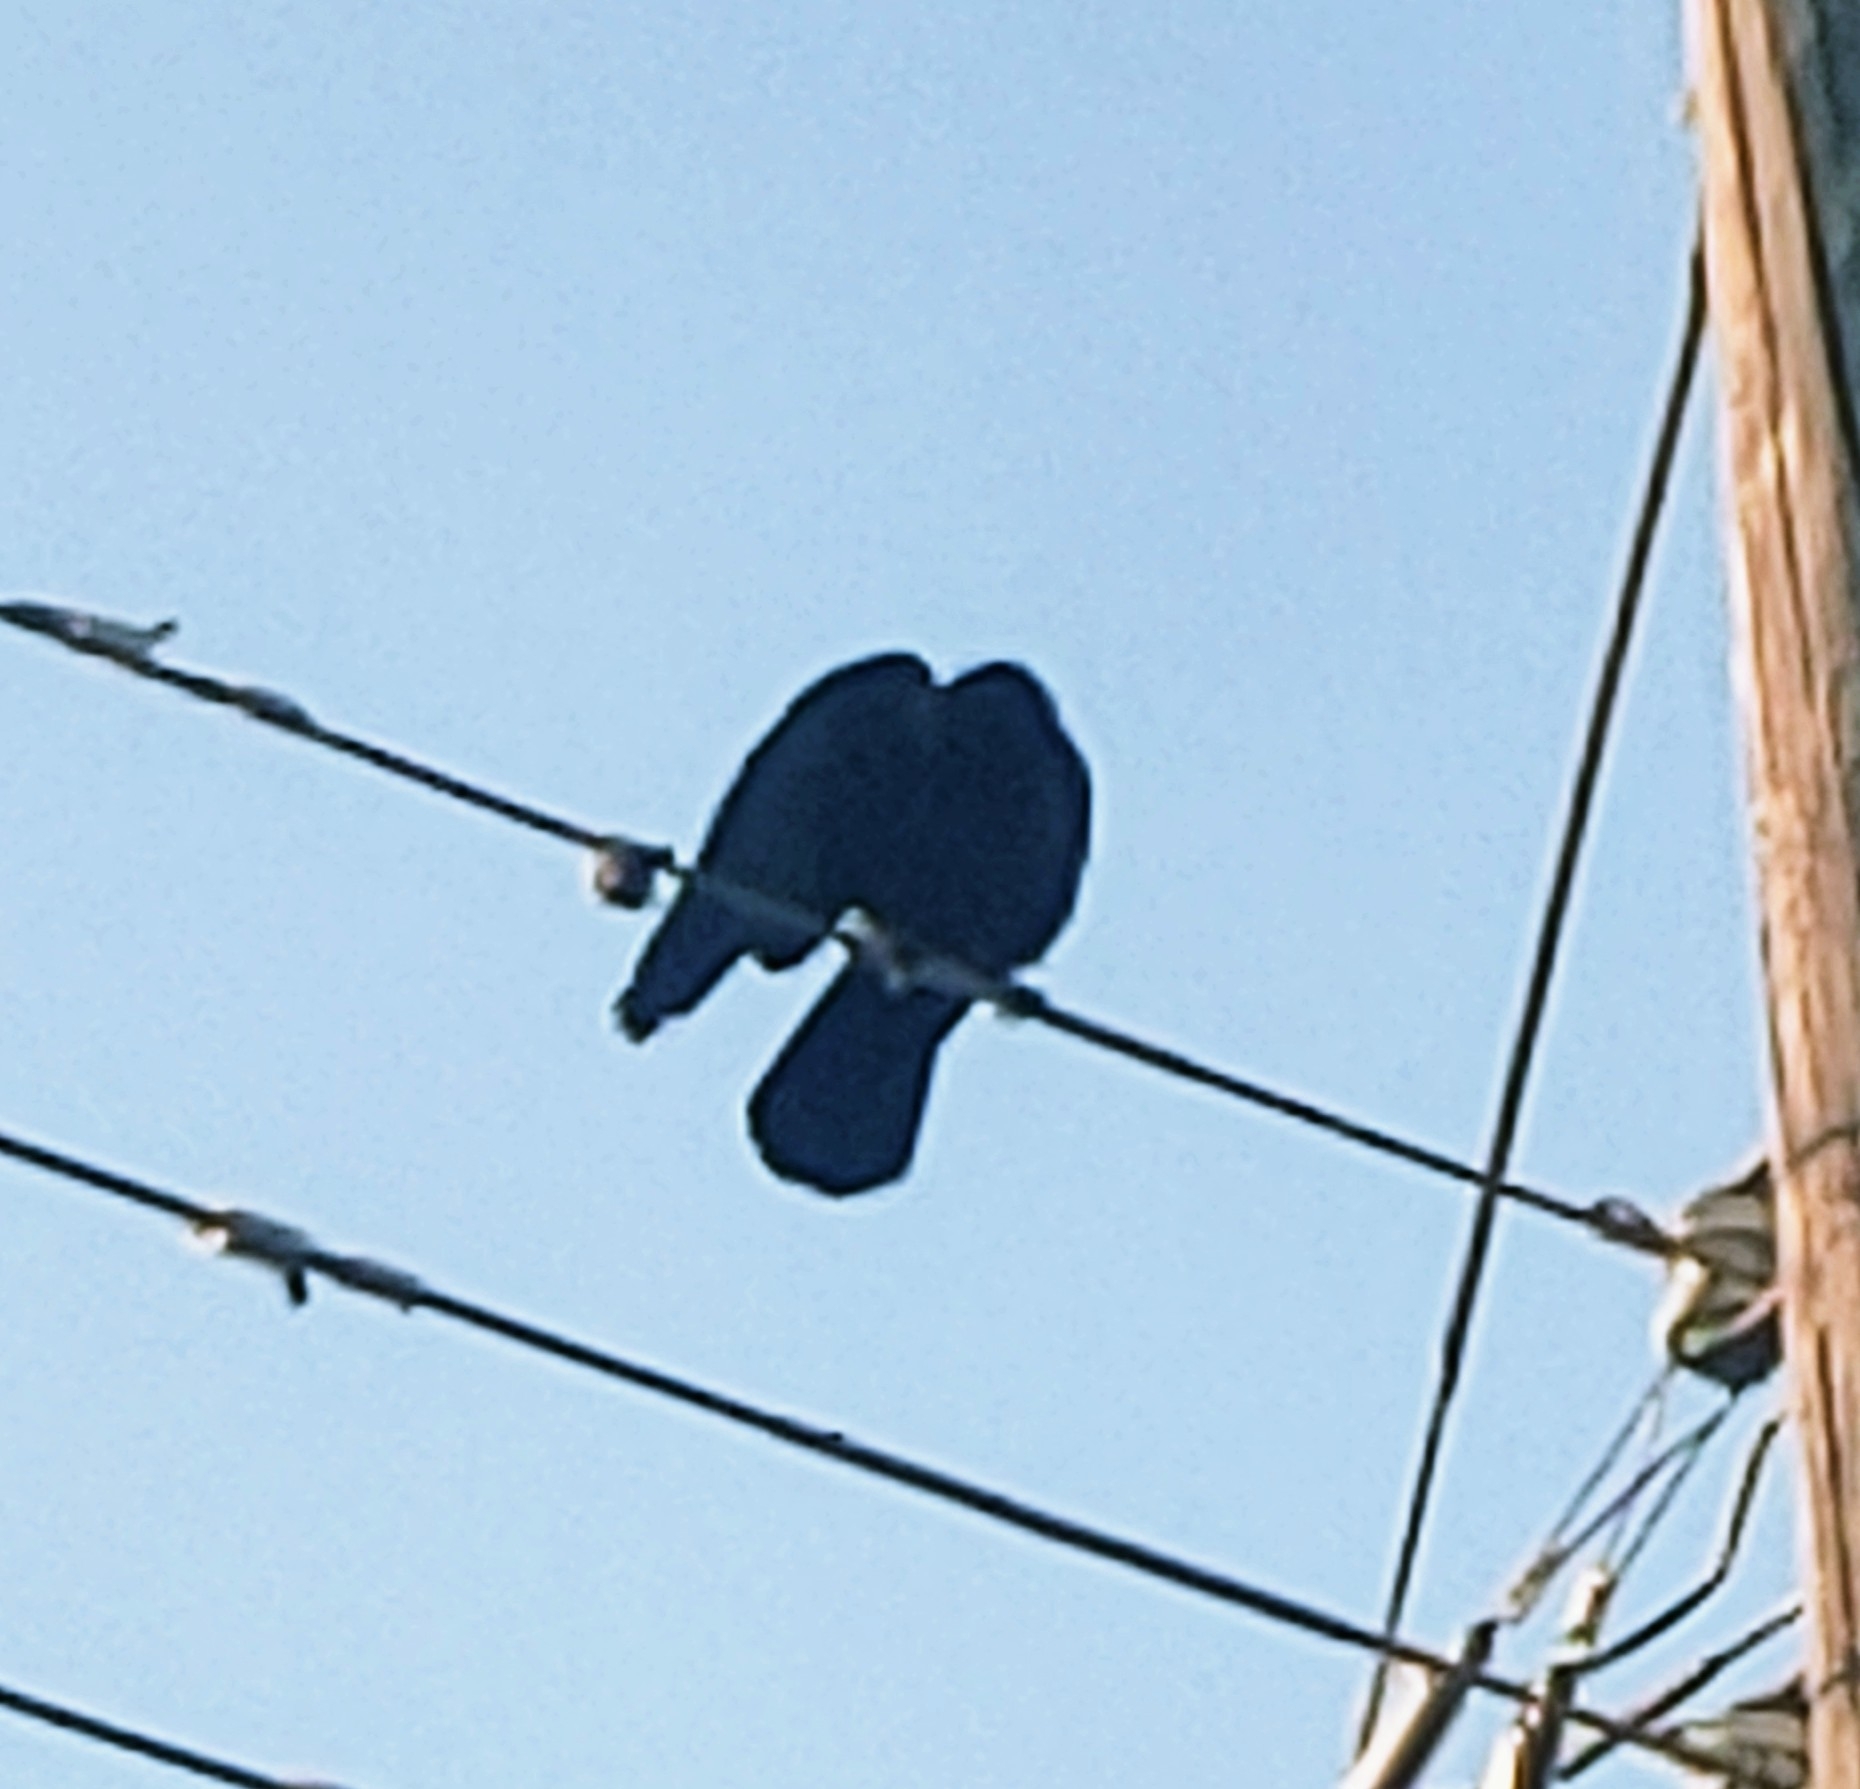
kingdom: Animalia
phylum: Chordata
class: Aves
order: Passeriformes
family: Corvidae
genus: Corvus
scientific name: Corvus
